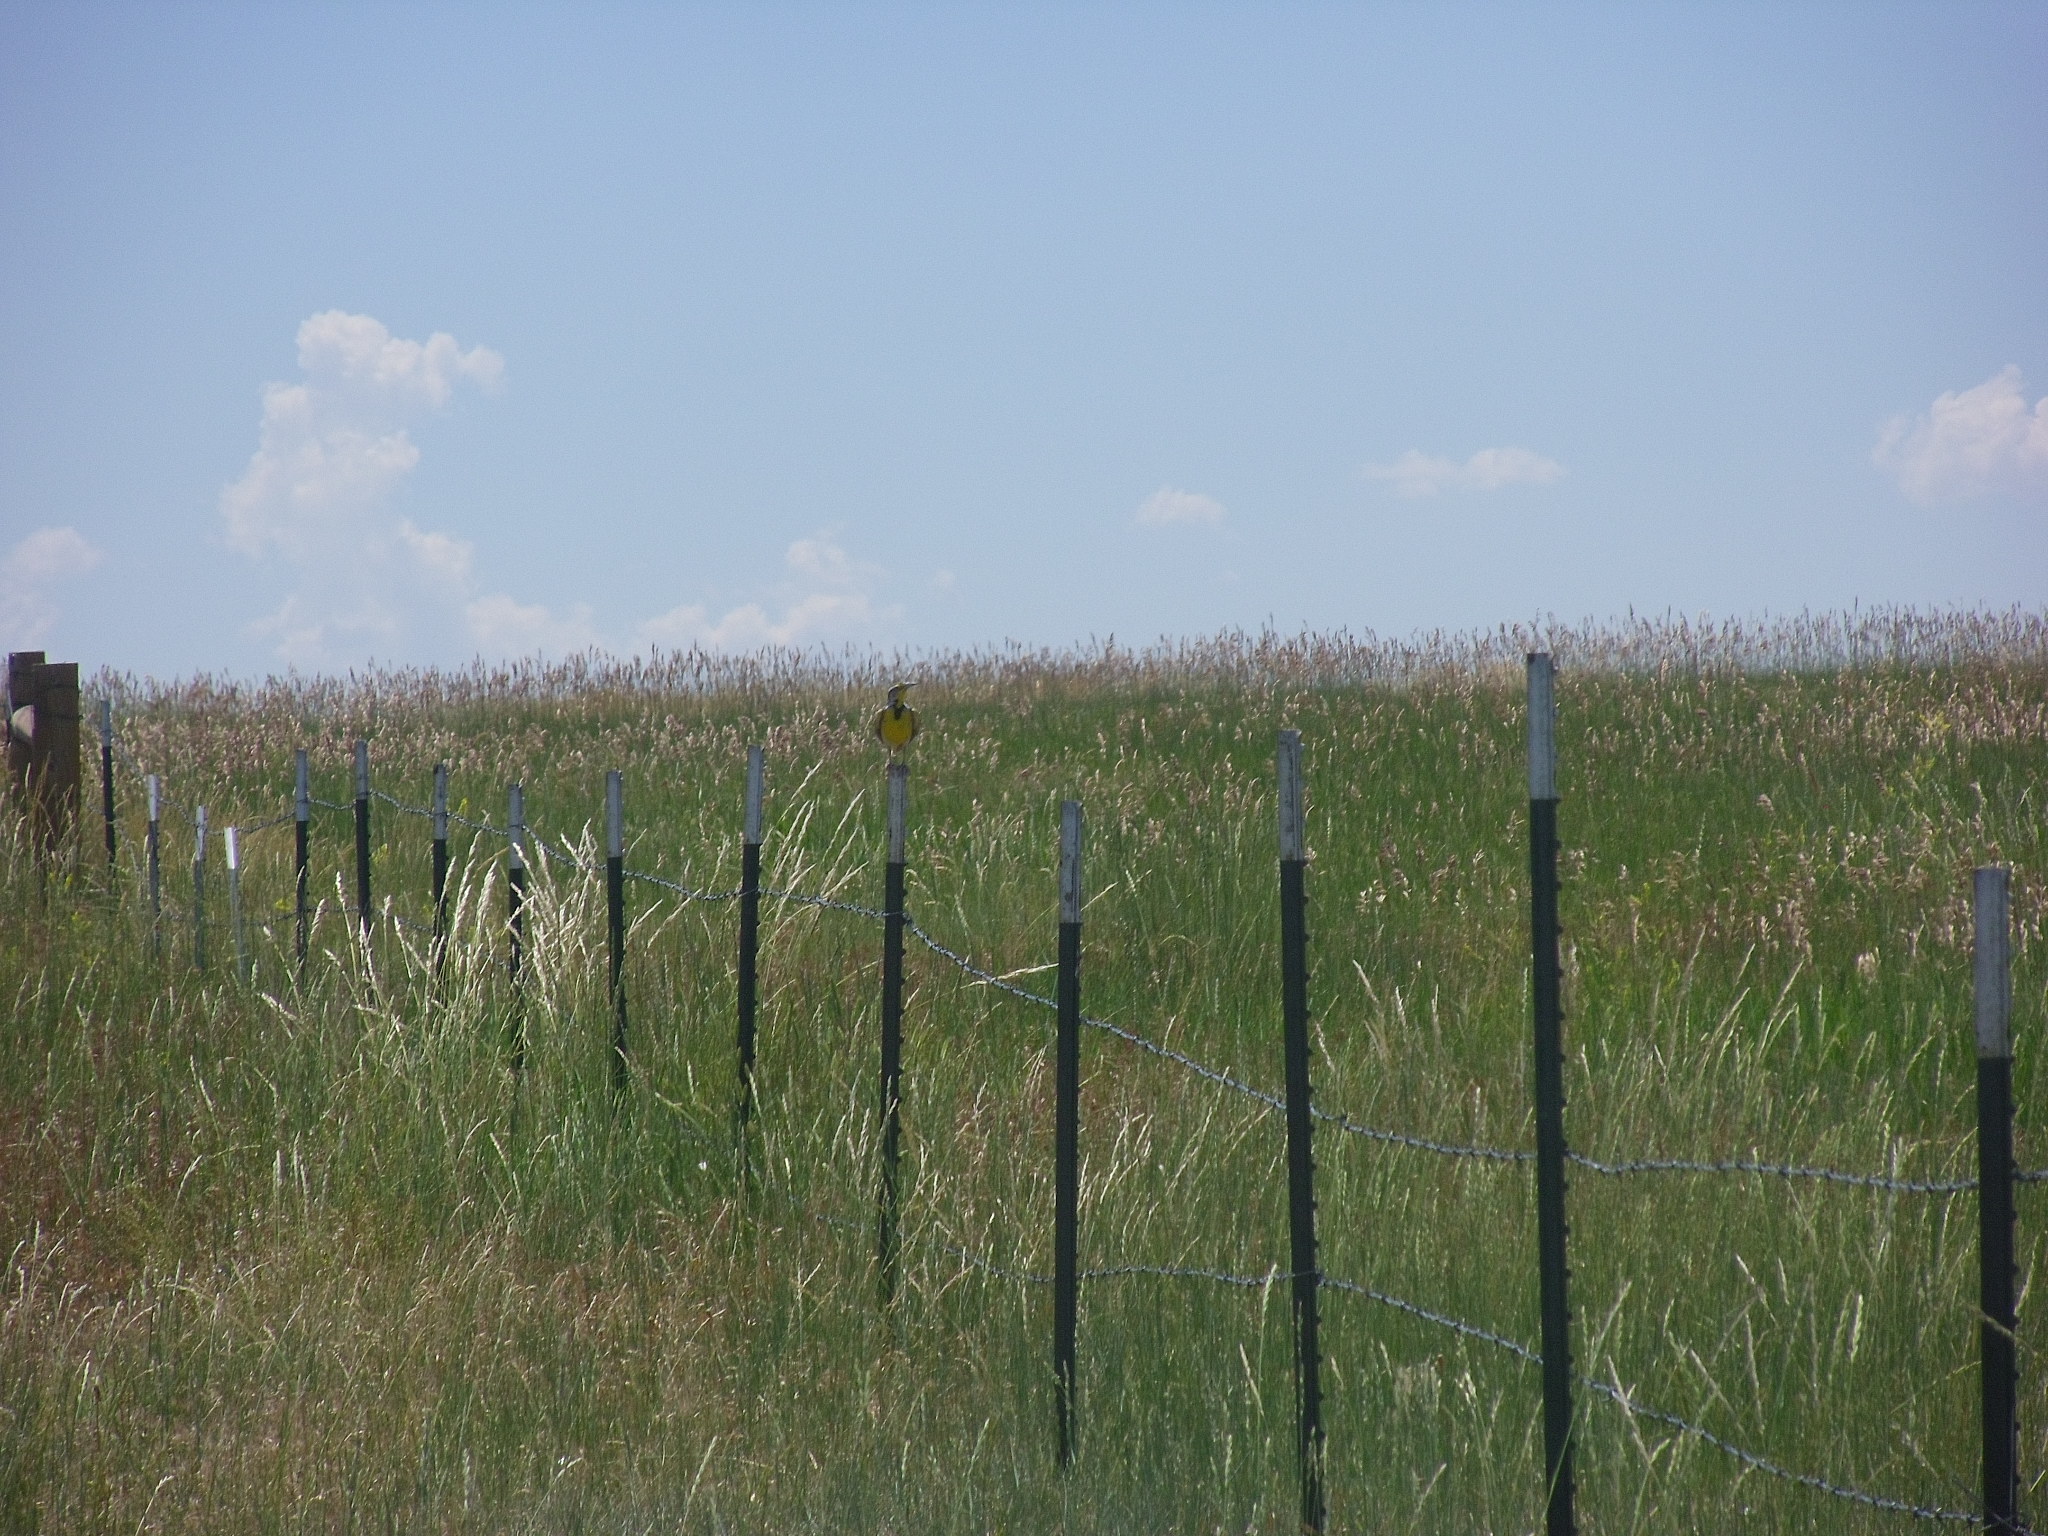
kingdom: Animalia
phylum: Chordata
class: Aves
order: Passeriformes
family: Icteridae
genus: Sturnella
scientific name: Sturnella neglecta
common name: Western meadowlark
